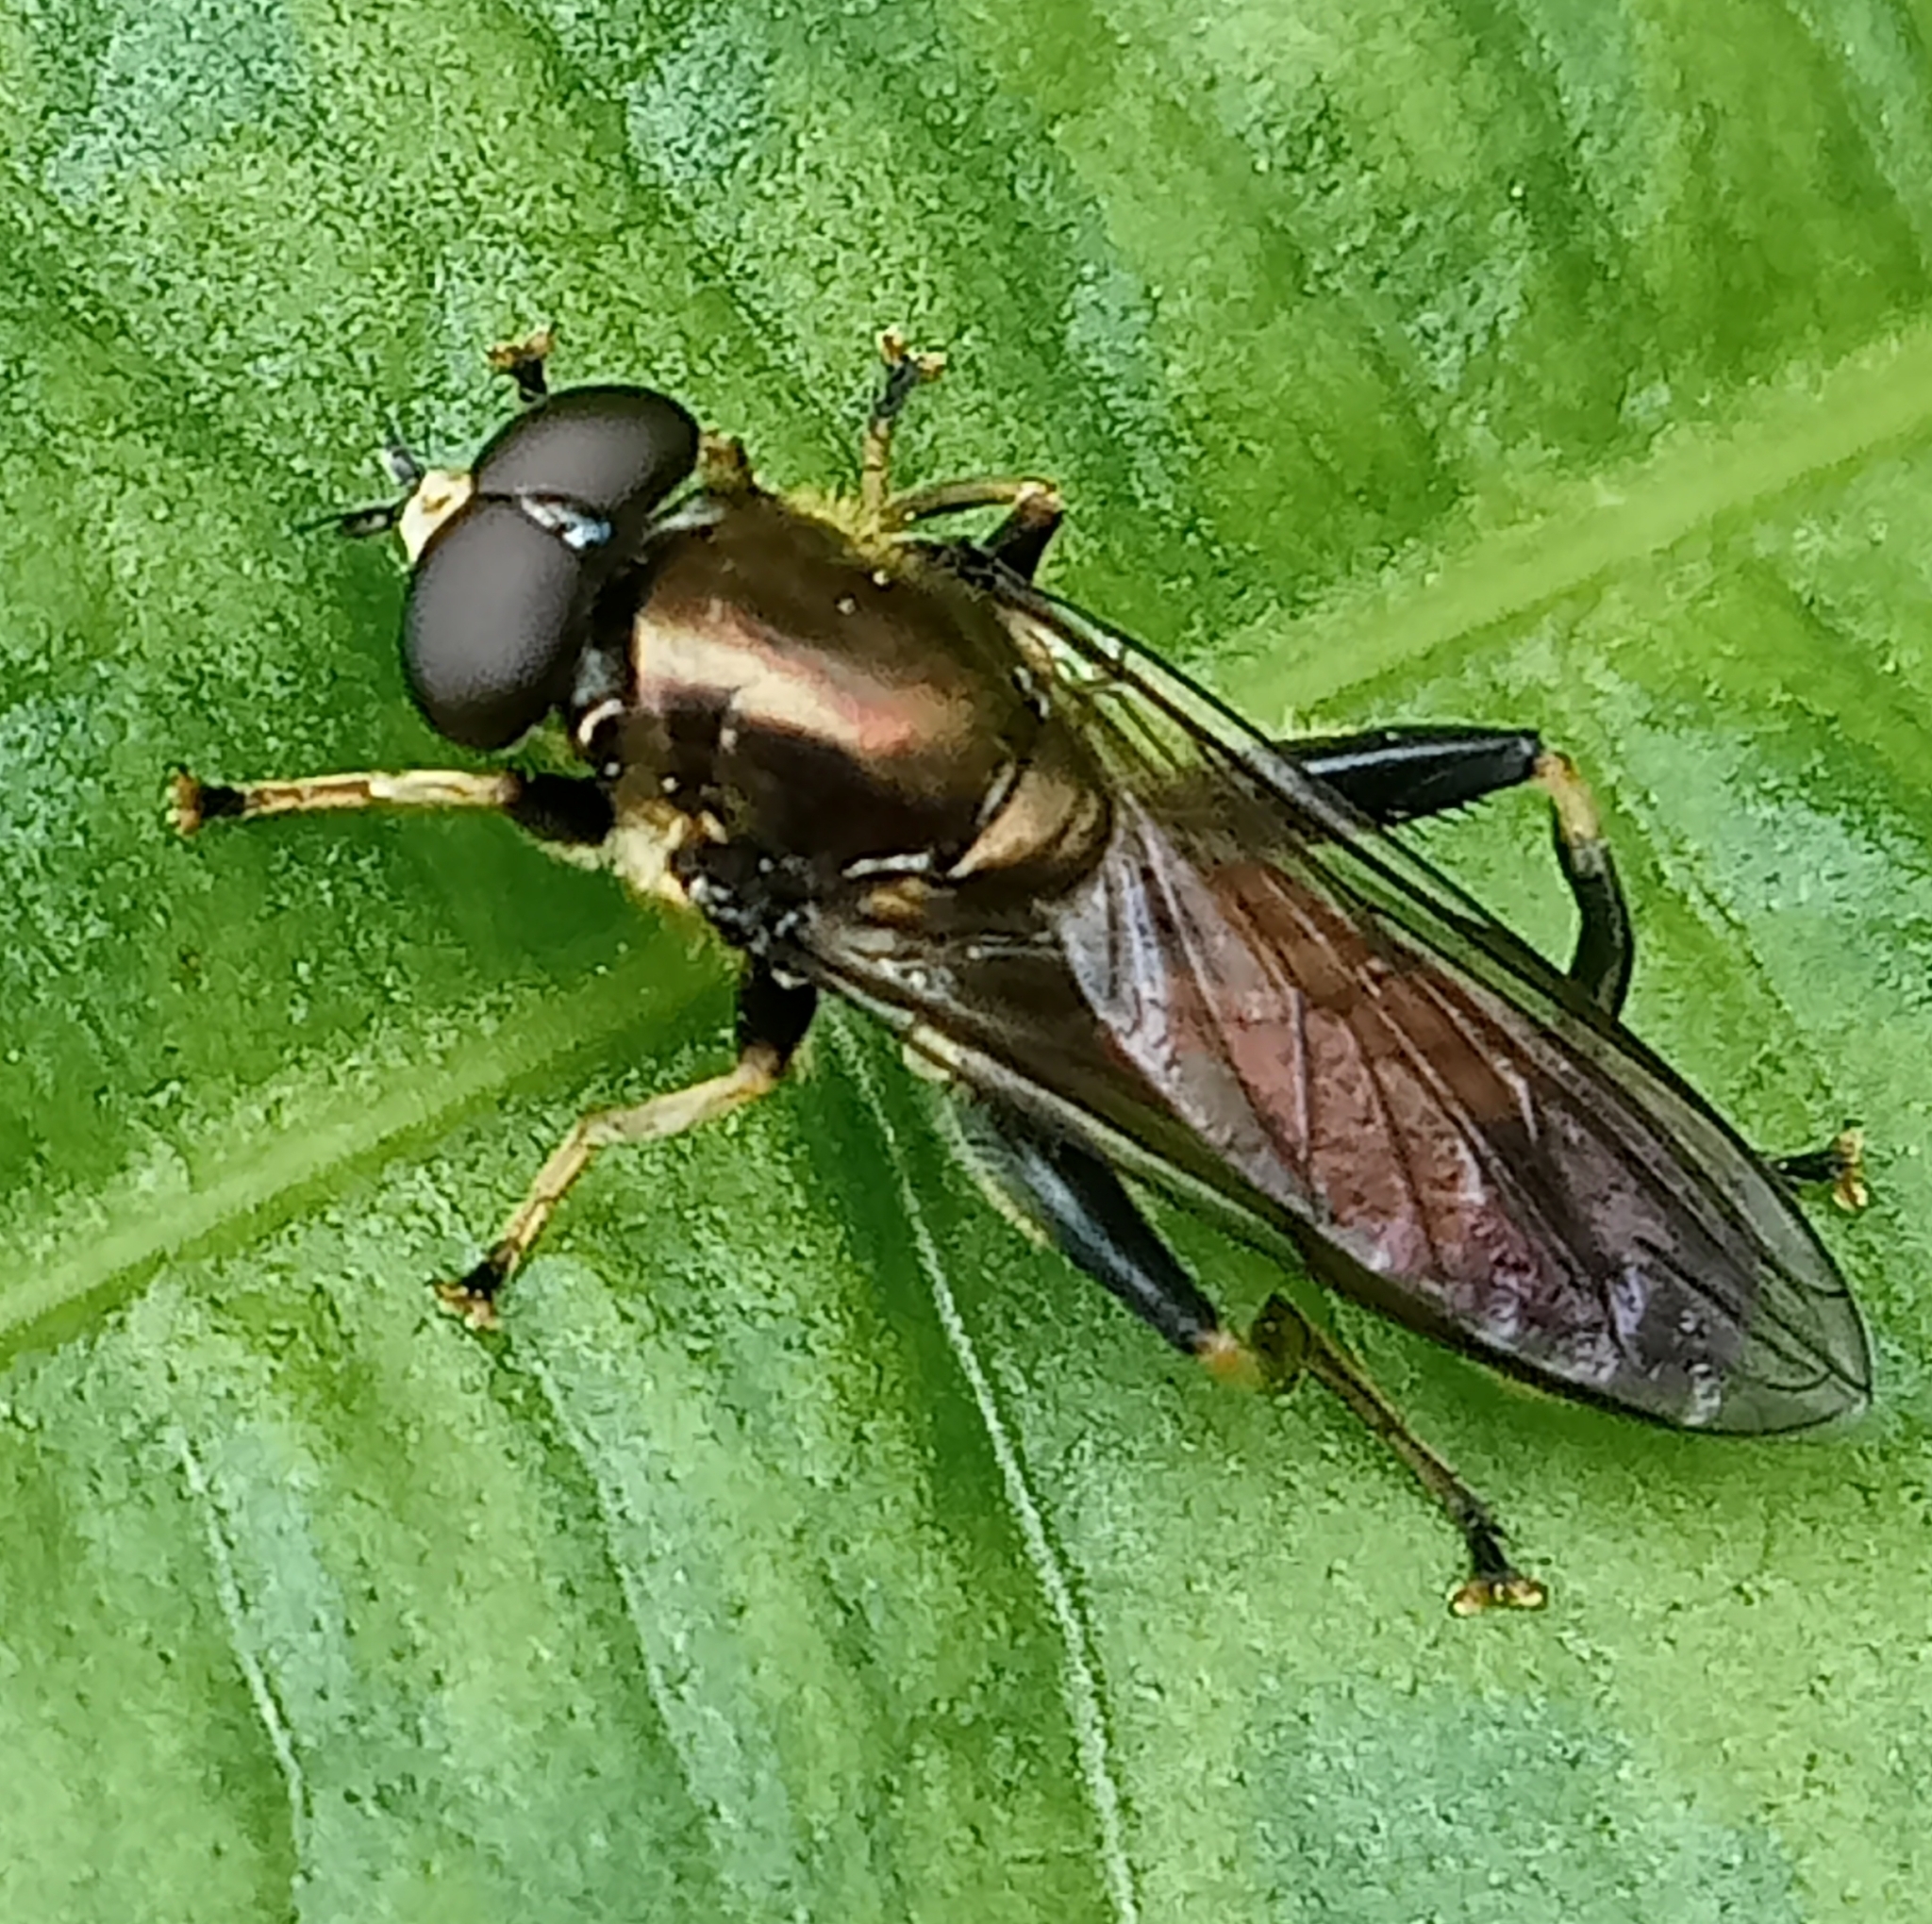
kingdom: Animalia
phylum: Arthropoda
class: Insecta
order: Diptera
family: Syrphidae
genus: Xylota
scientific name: Xylota segnis
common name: Brown-toed forest fly
